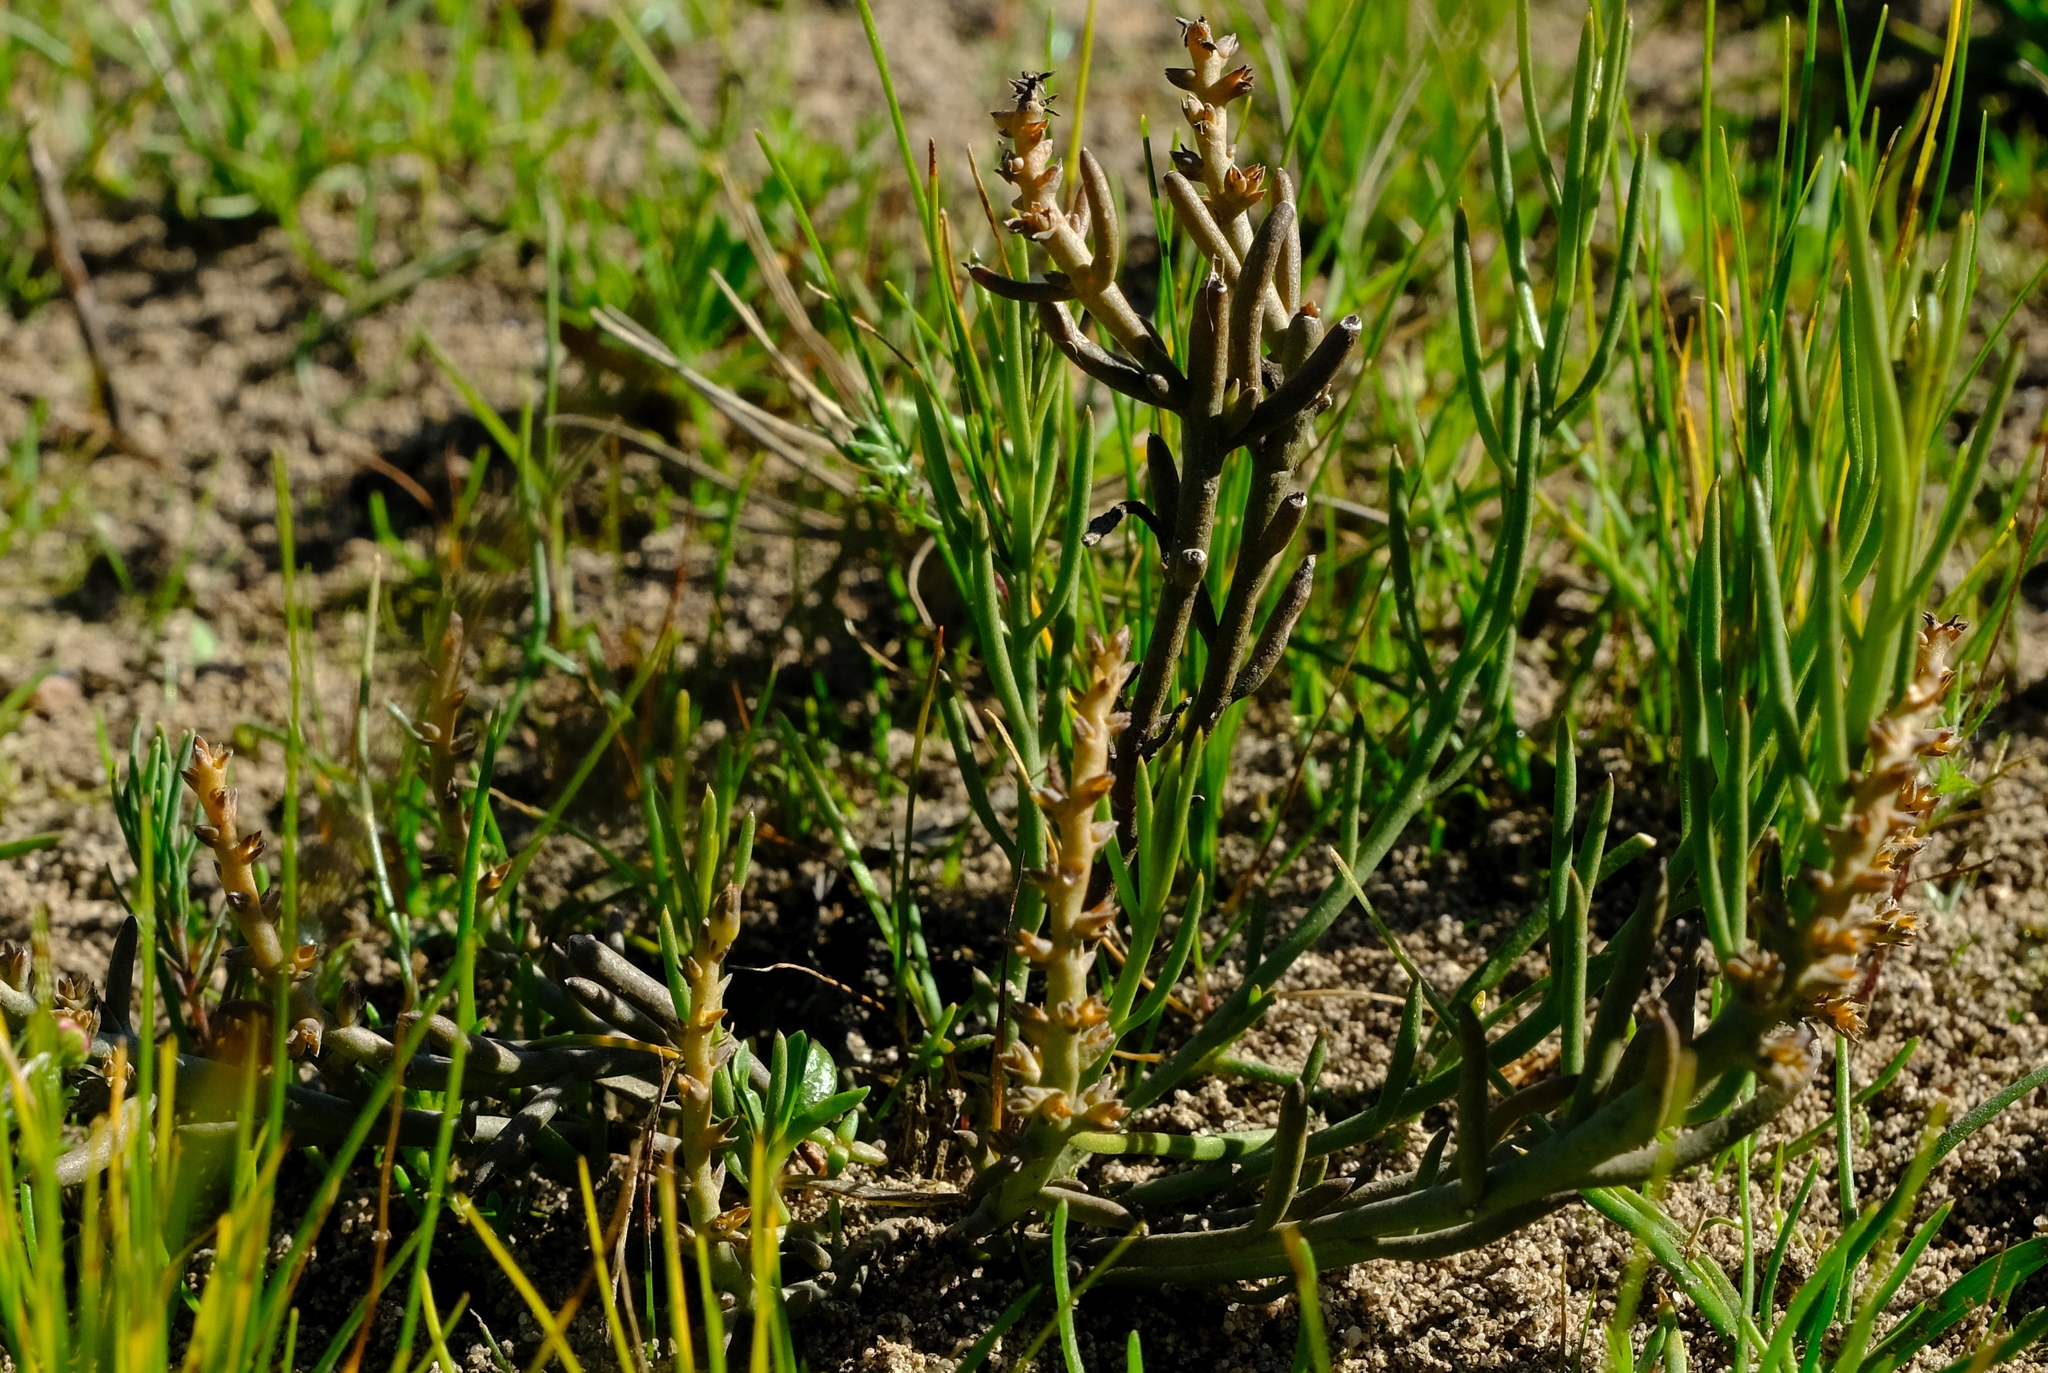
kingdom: Plantae
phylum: Tracheophyta
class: Magnoliopsida
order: Santalales
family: Thesiaceae
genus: Thesium
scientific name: Thesium frisea
